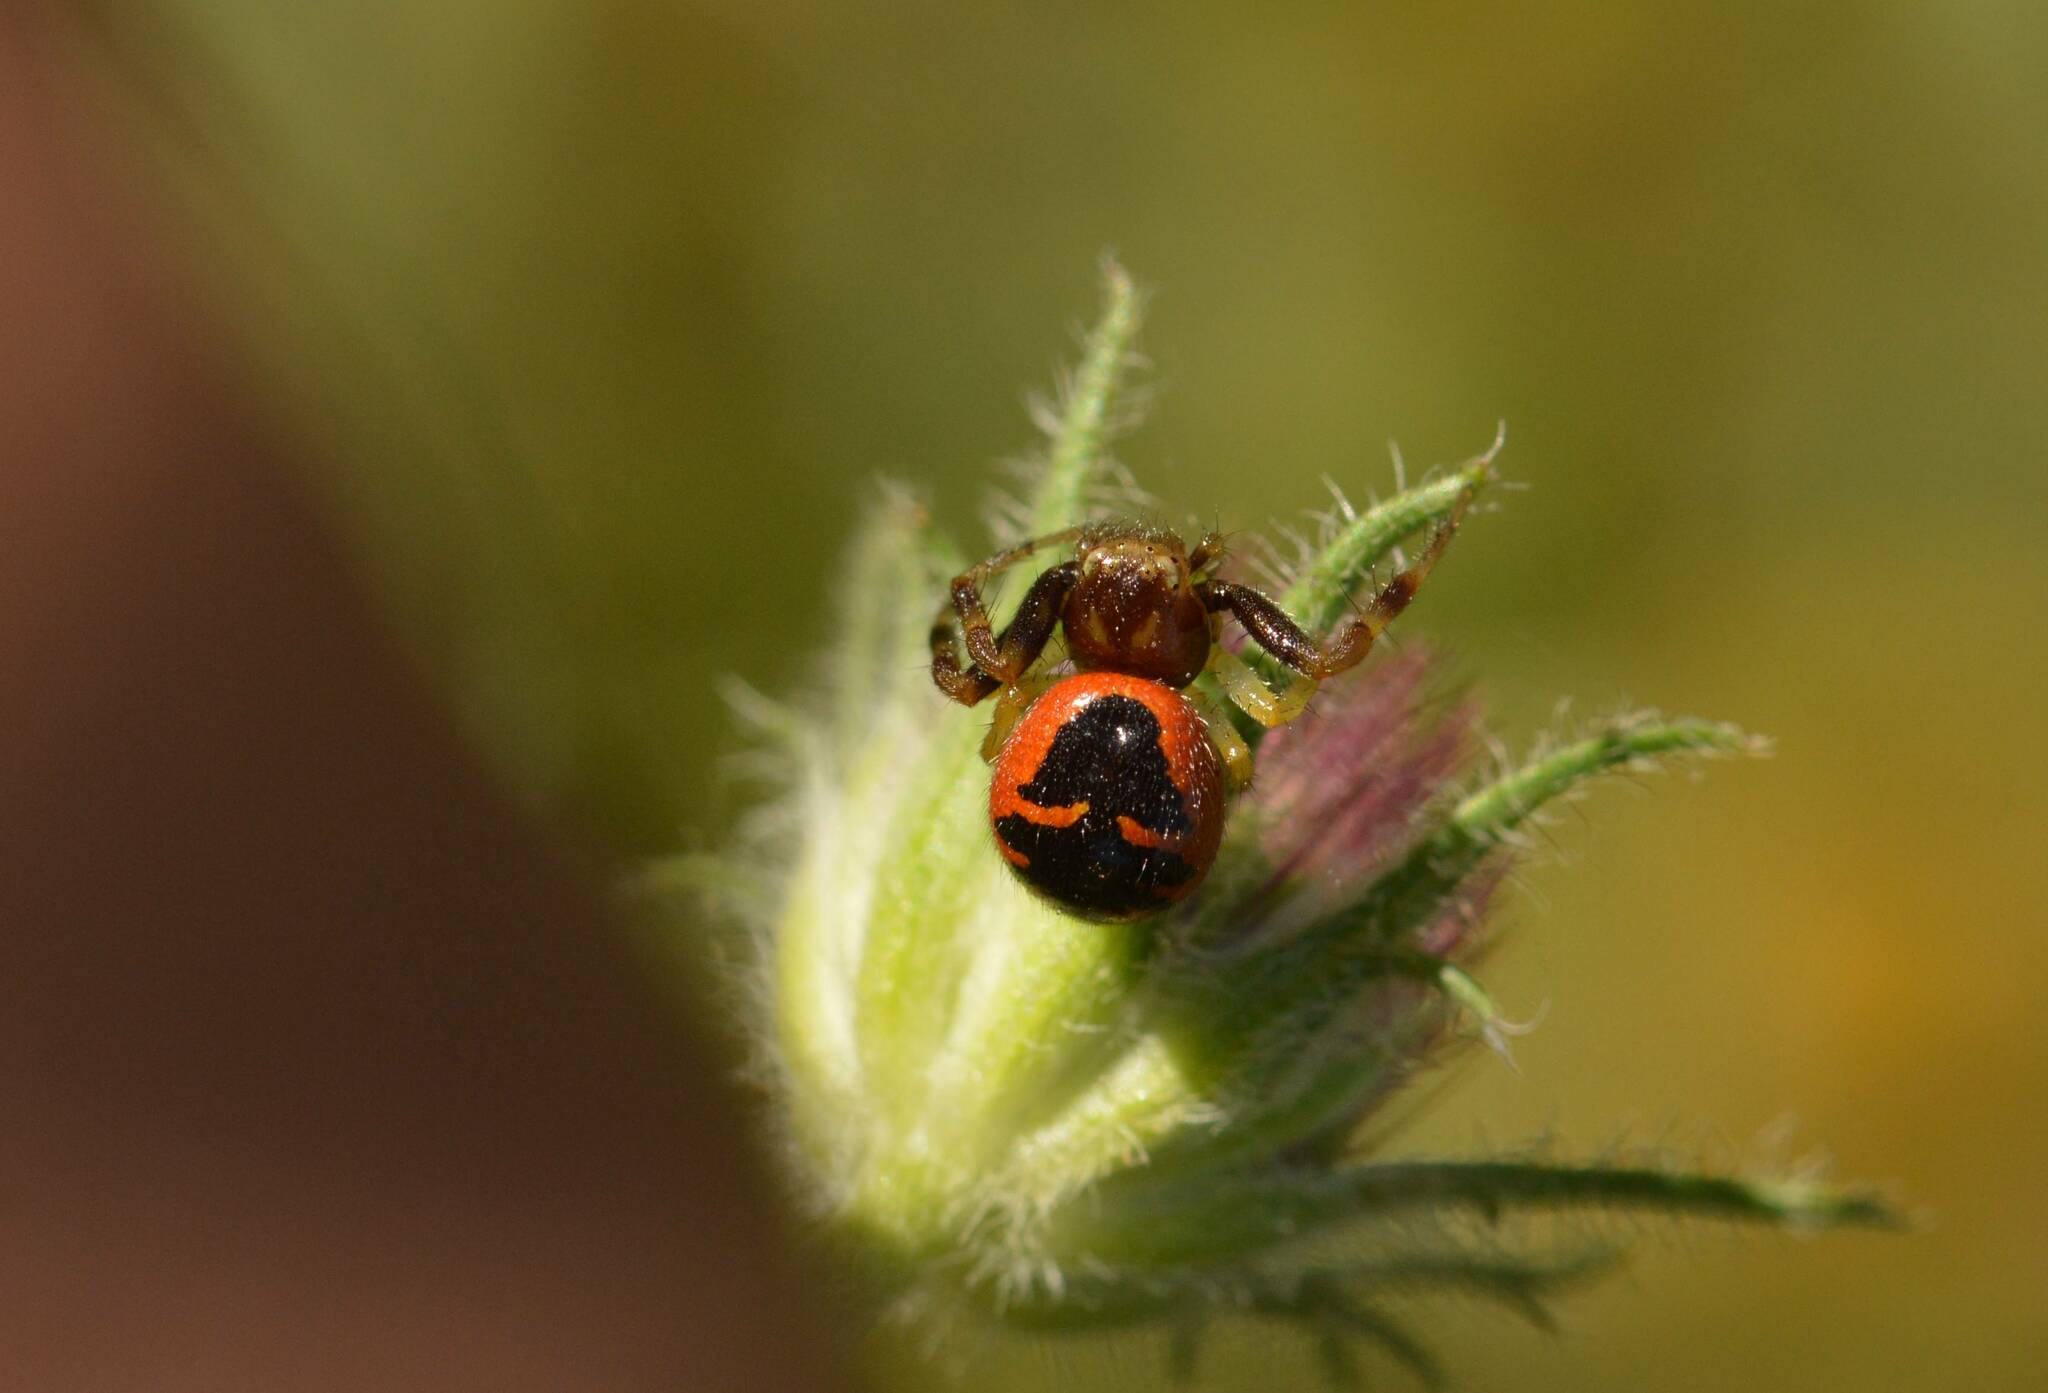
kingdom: Animalia
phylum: Arthropoda
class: Arachnida
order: Araneae
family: Thomisidae
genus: Synema
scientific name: Synema globosum
